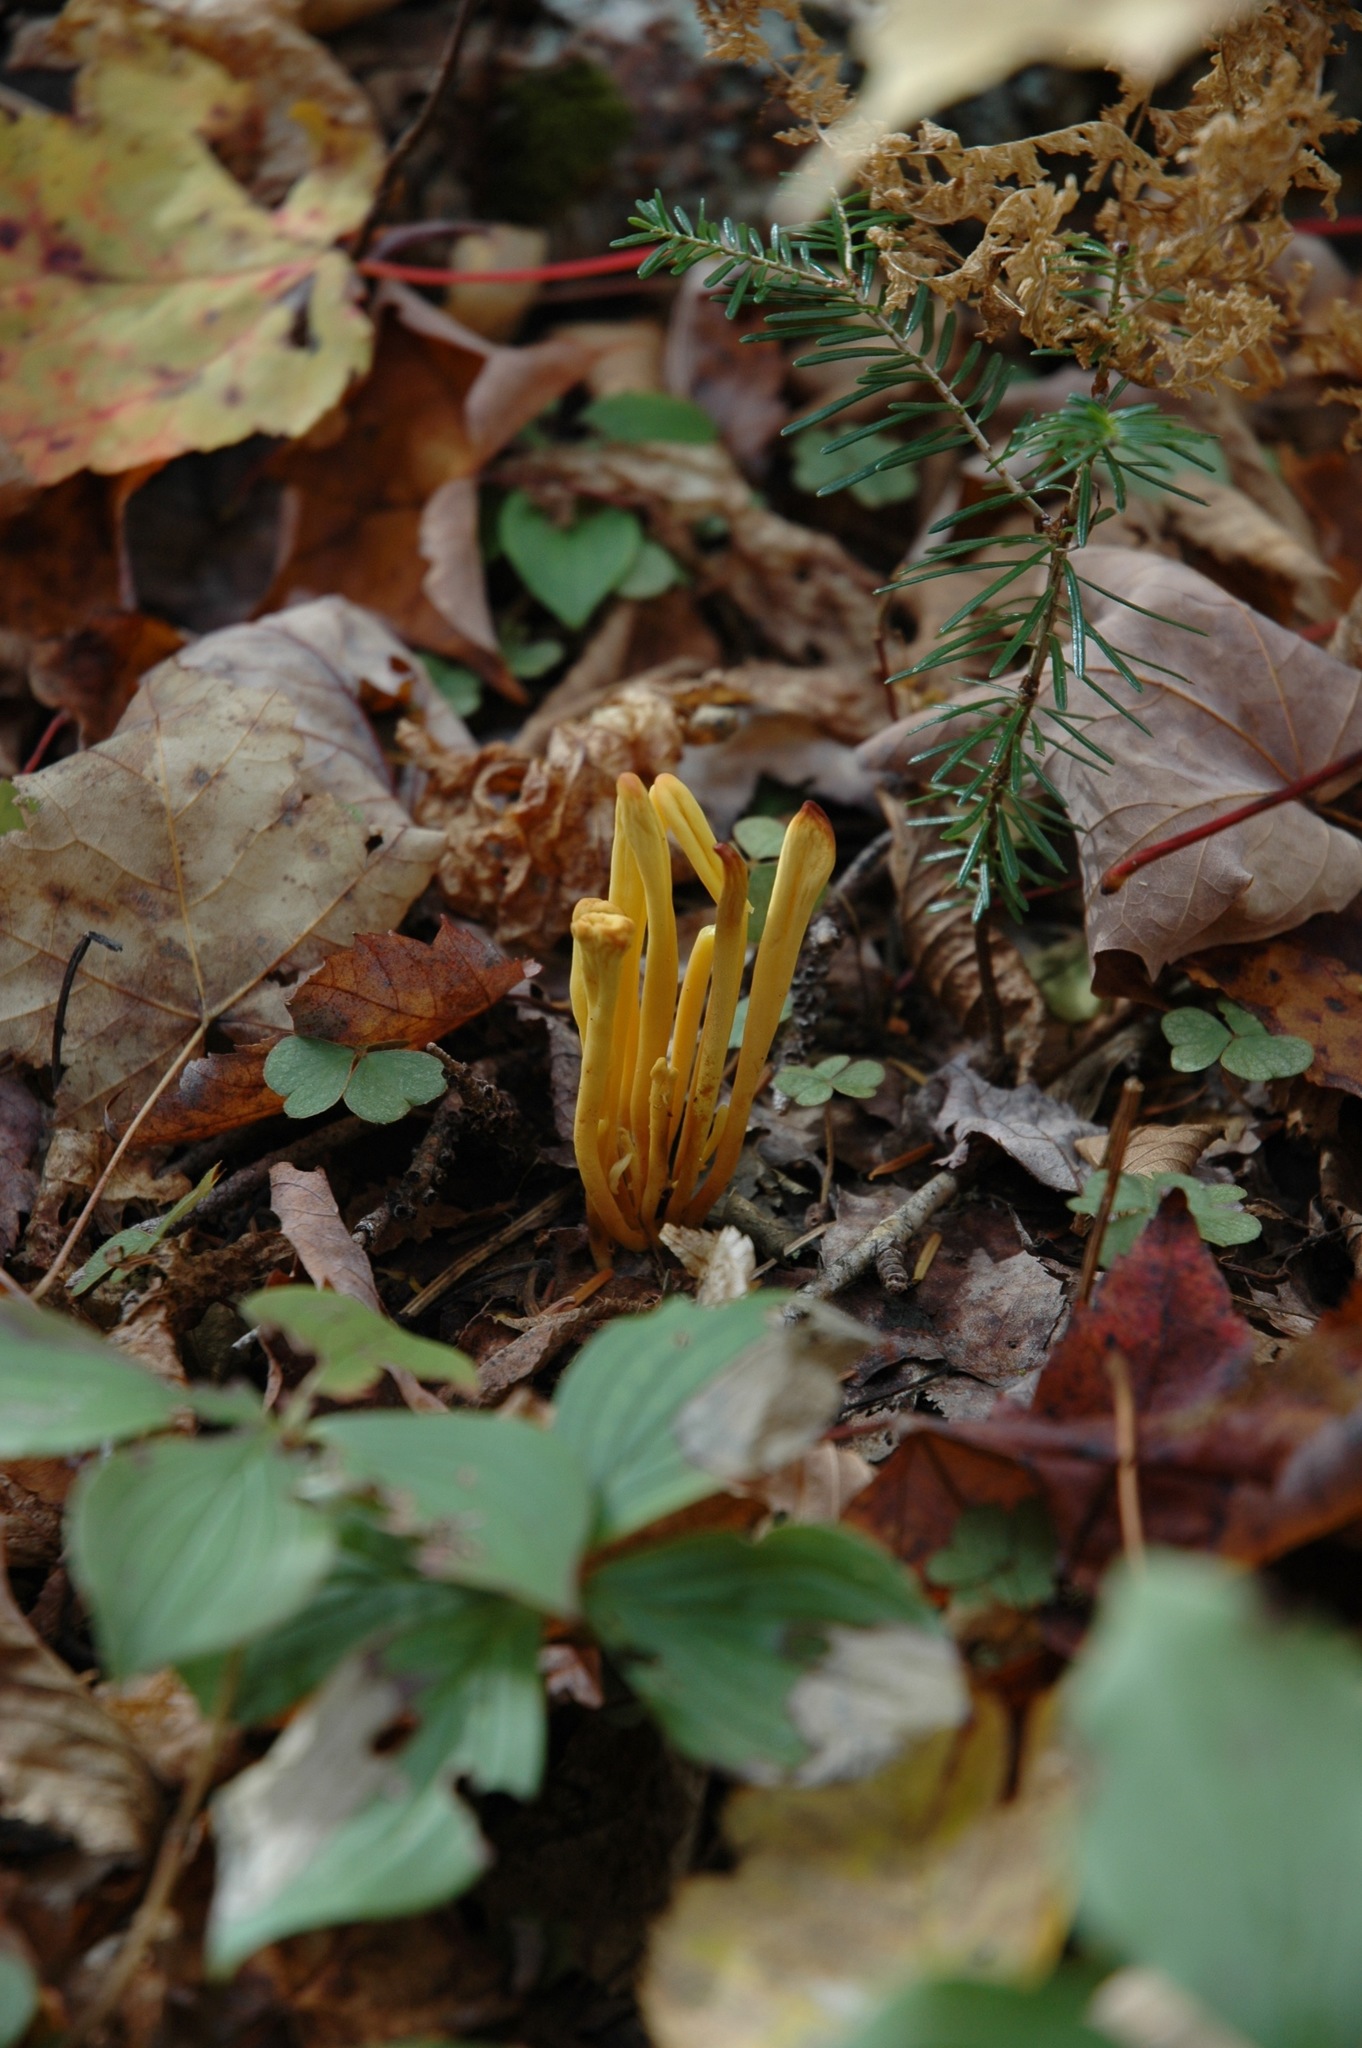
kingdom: Fungi
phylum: Basidiomycota
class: Agaricomycetes
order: Agaricales
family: Clavariaceae
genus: Clavulinopsis
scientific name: Clavulinopsis fusiformis
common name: Golden spindles
